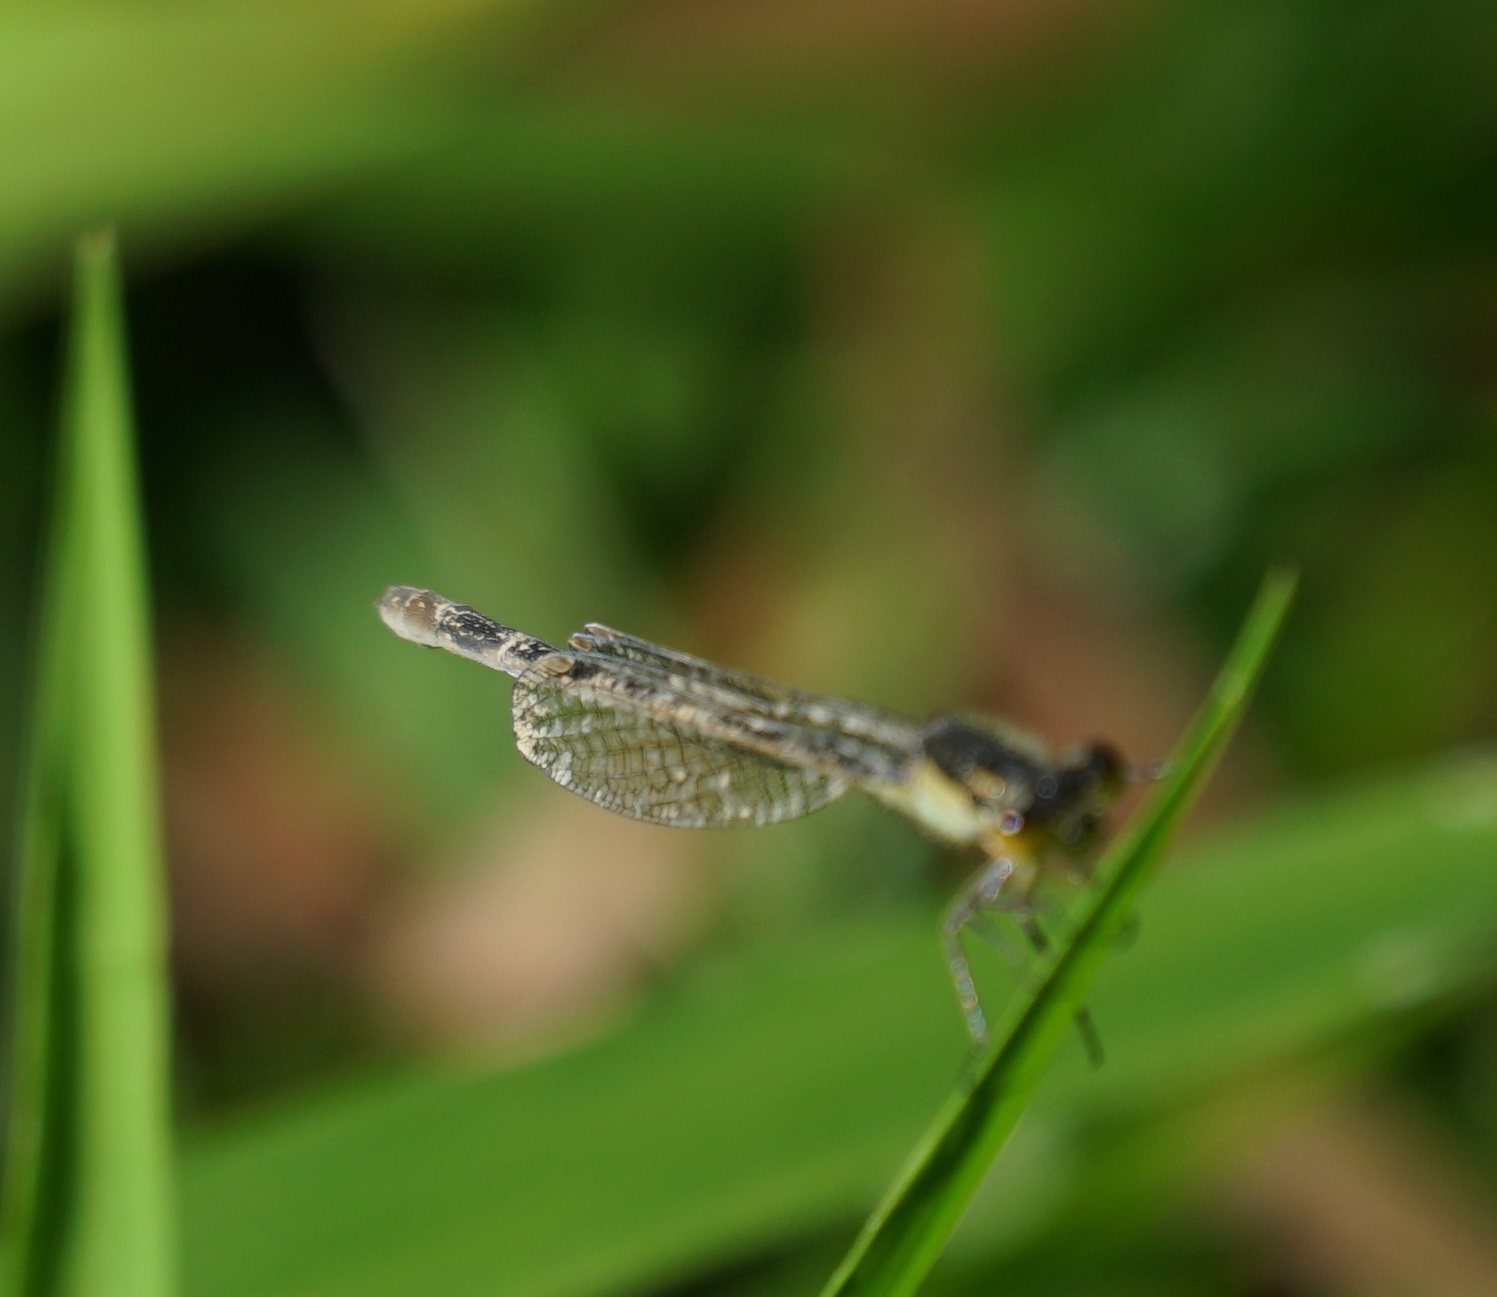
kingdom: Animalia
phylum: Arthropoda
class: Insecta
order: Odonata
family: Coenagrionidae
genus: Ischnura
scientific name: Ischnura heterosticta
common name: Common bluetail
